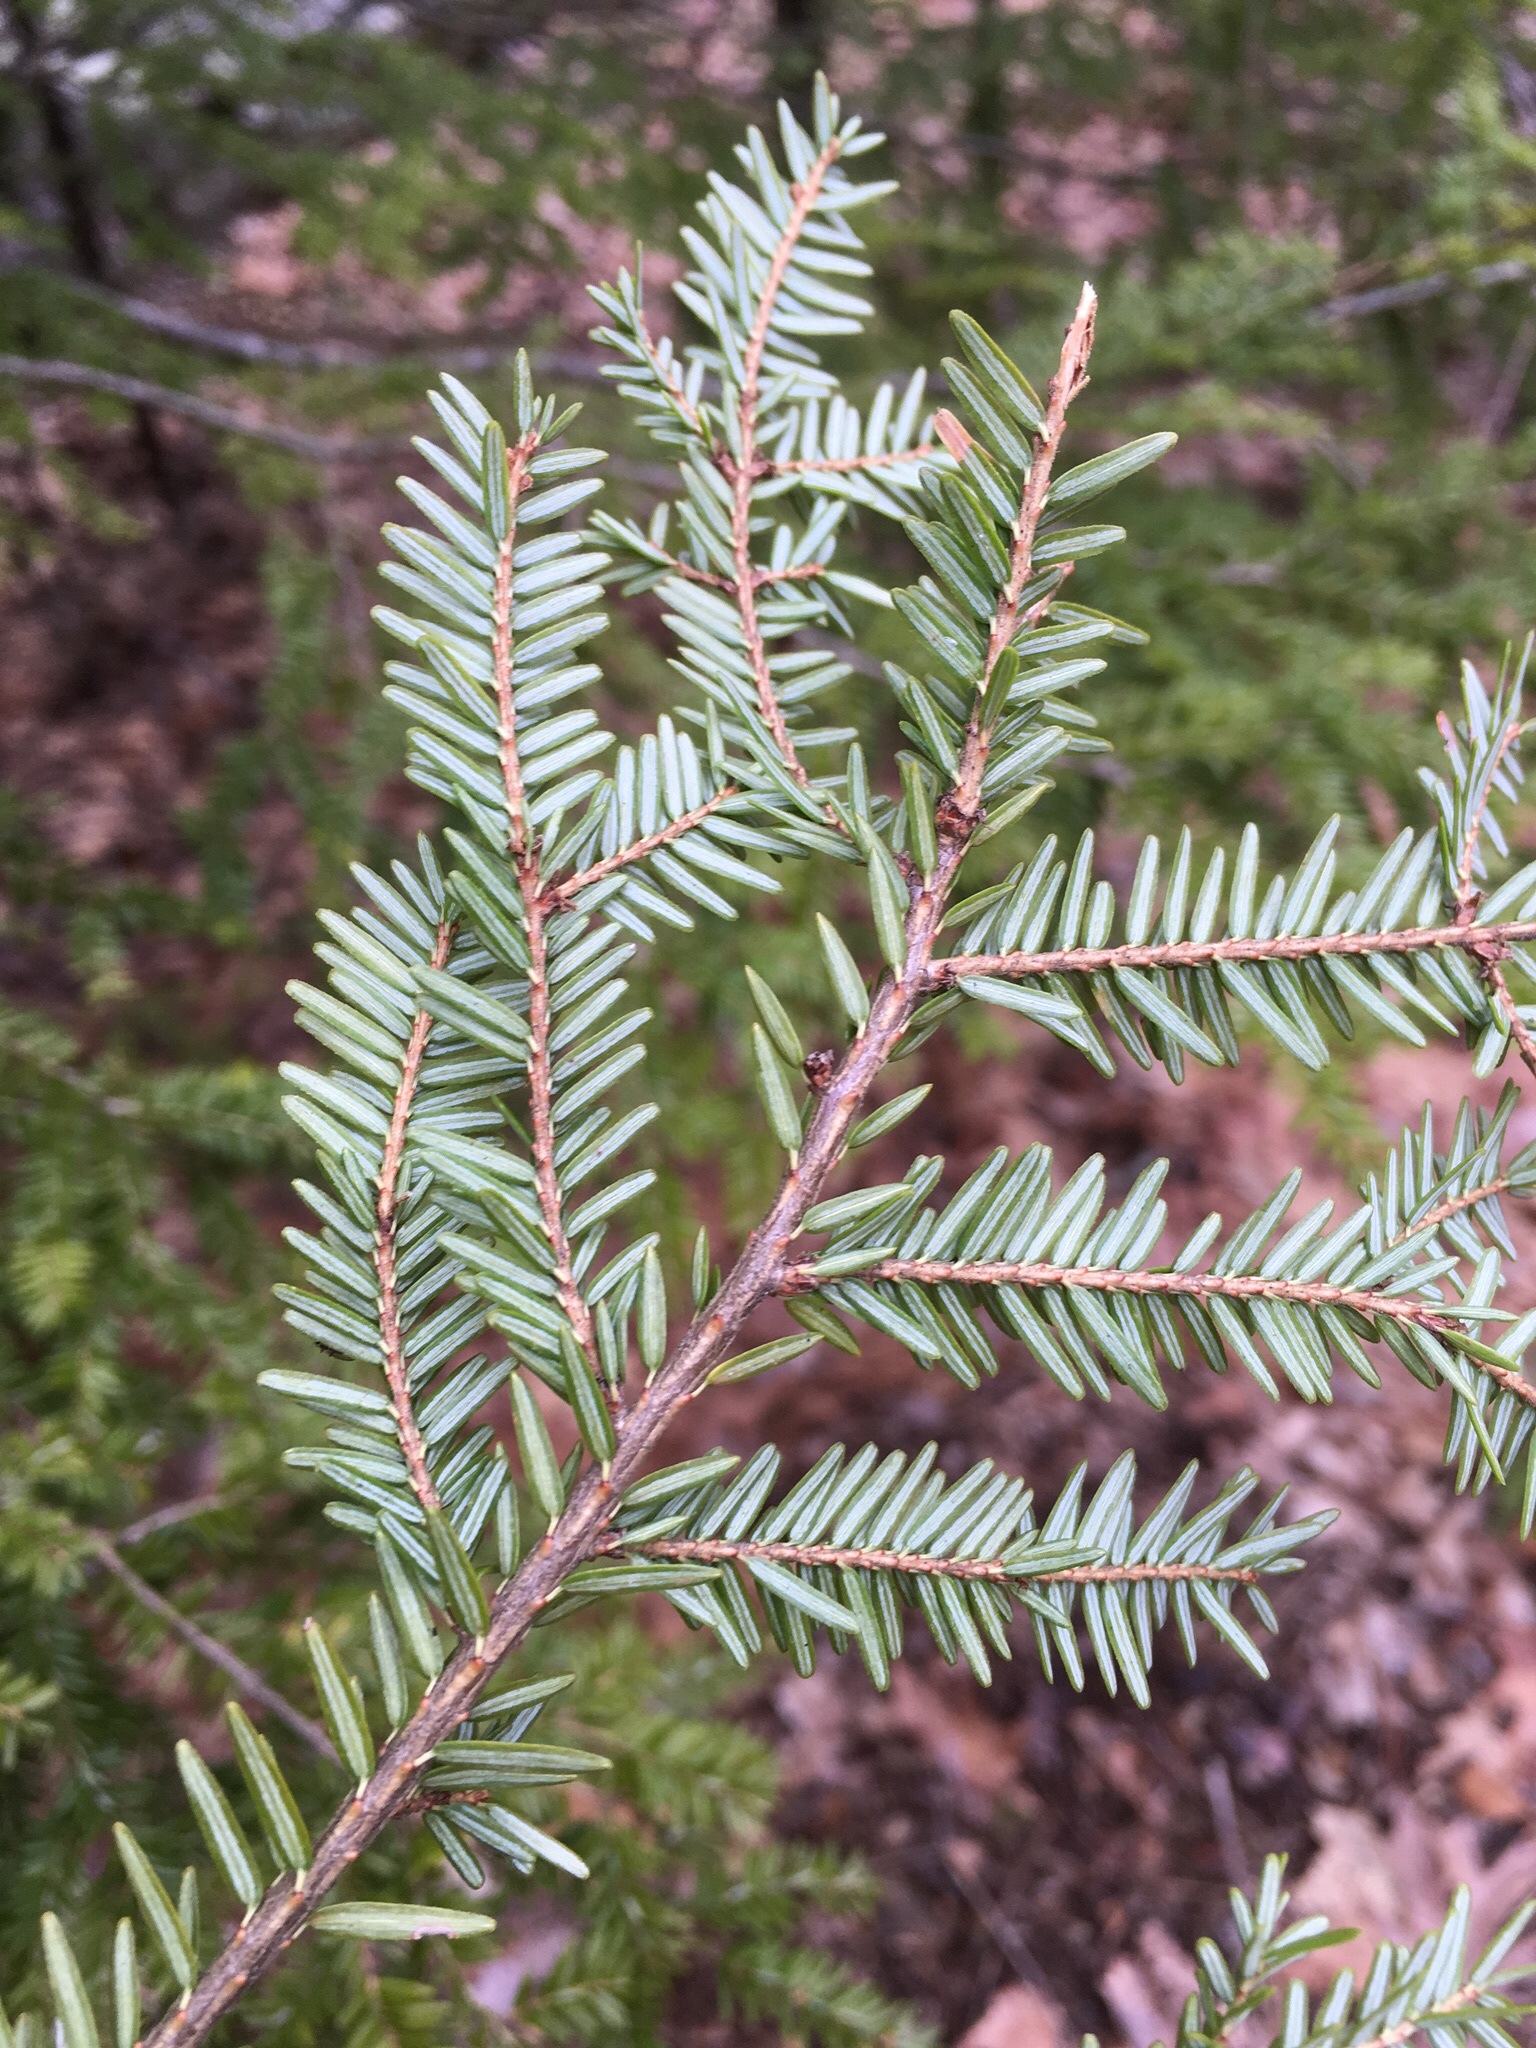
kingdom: Plantae
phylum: Tracheophyta
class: Pinopsida
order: Pinales
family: Pinaceae
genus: Tsuga
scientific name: Tsuga canadensis
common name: Eastern hemlock
